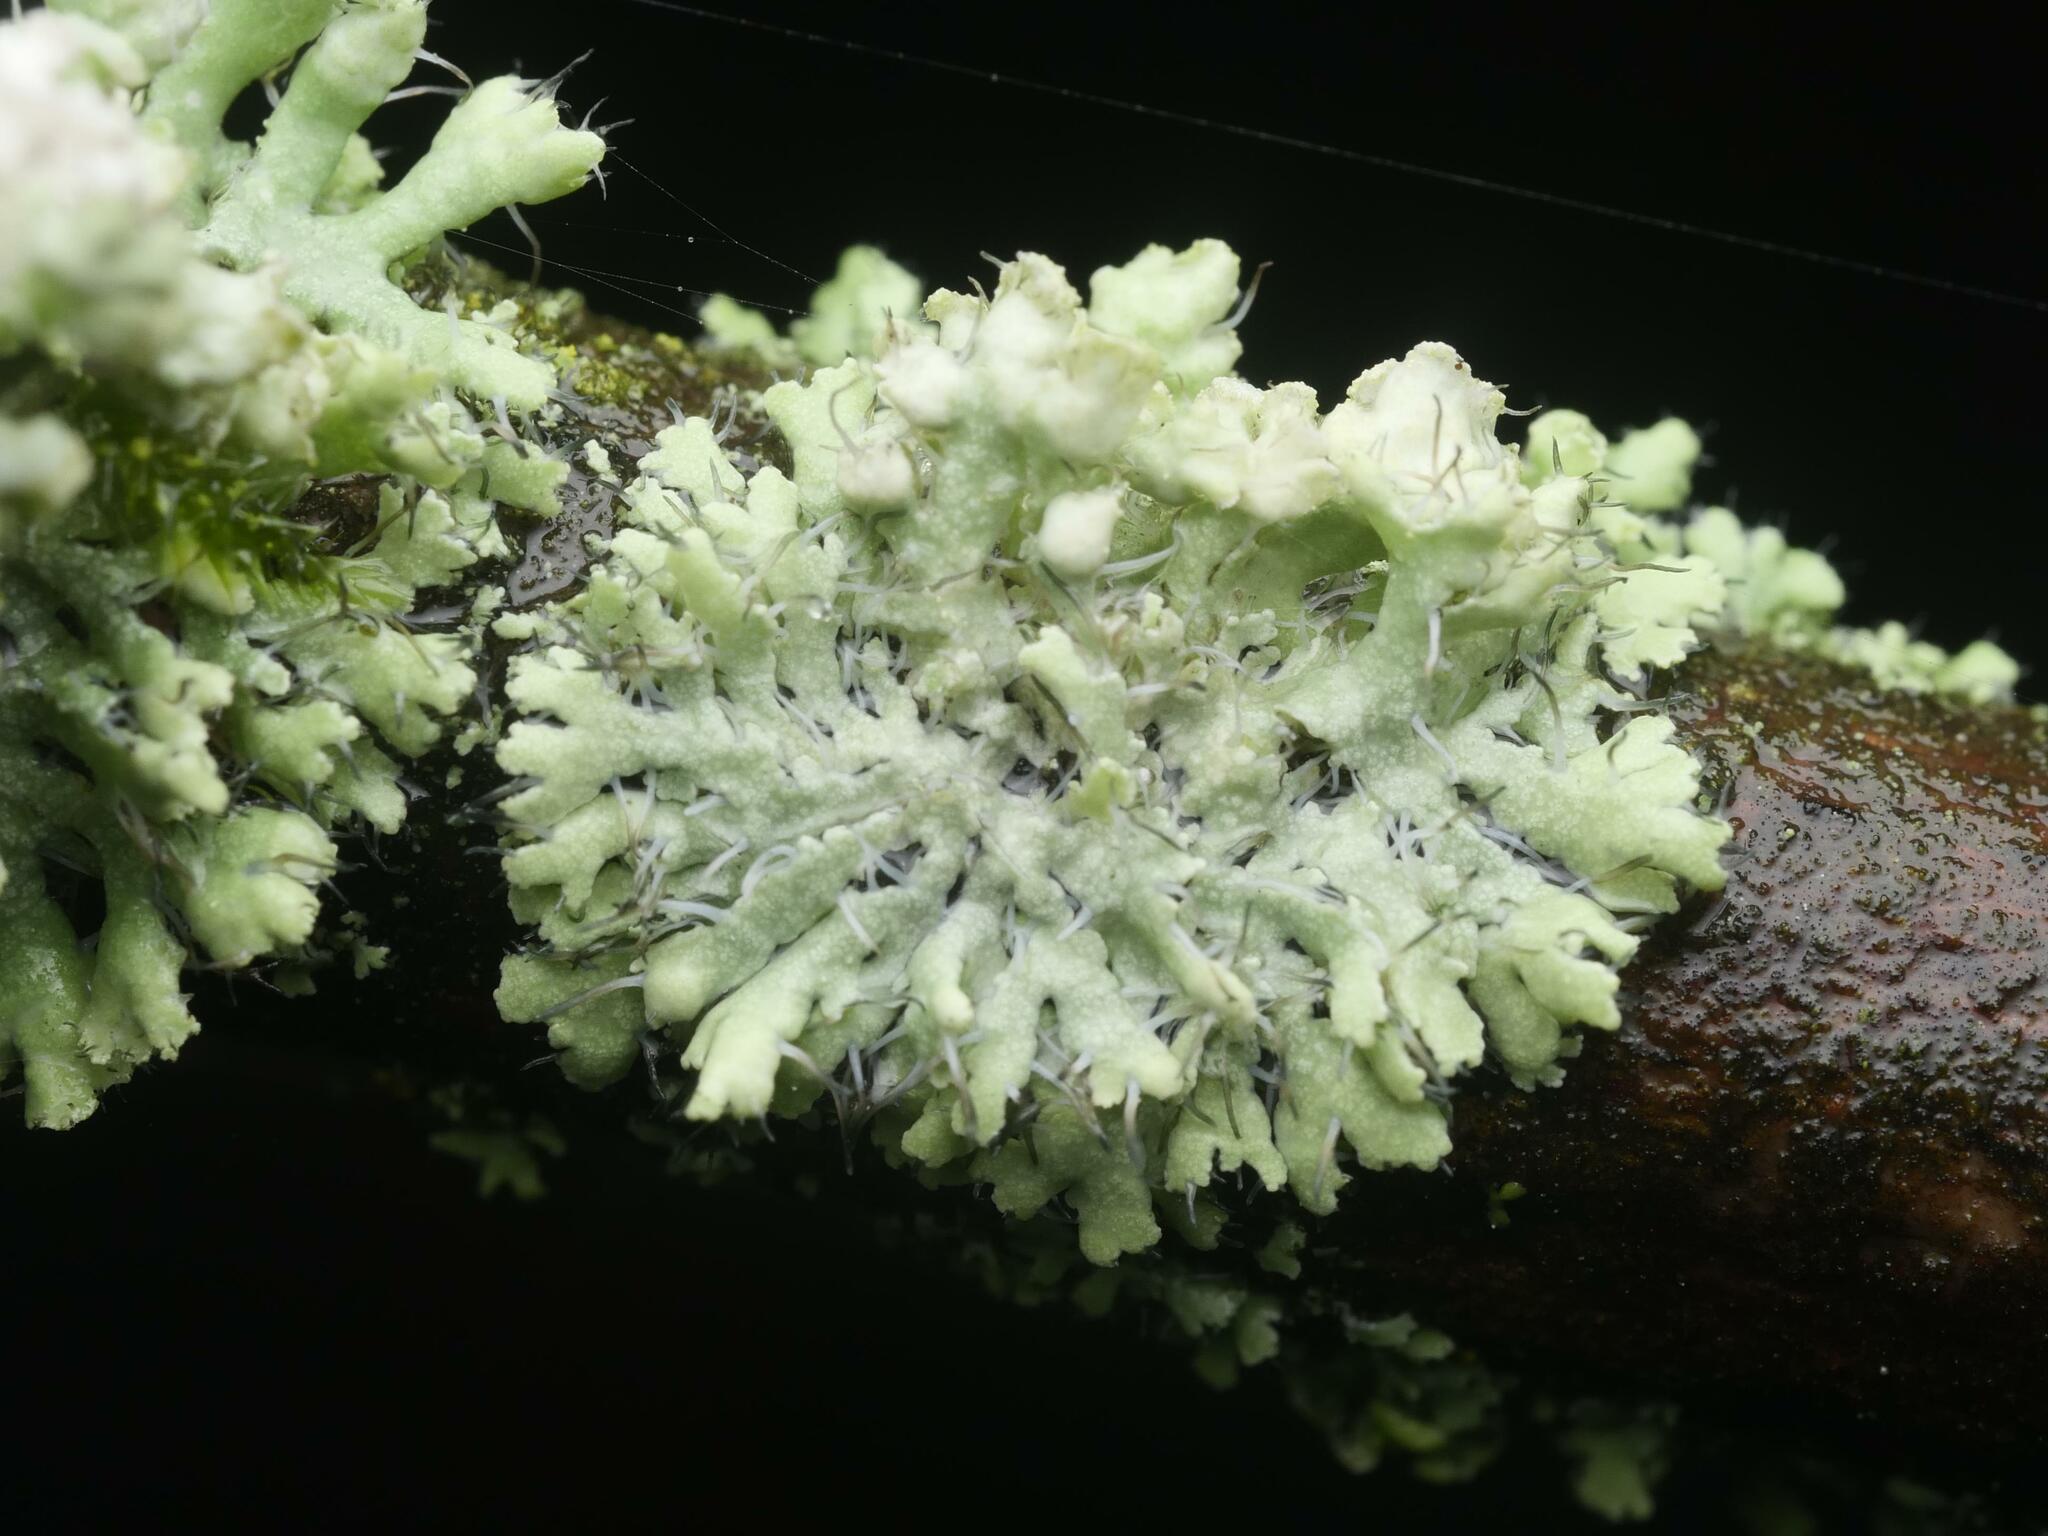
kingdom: Fungi
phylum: Ascomycota
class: Lecanoromycetes
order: Caliciales
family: Physciaceae
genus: Physcia
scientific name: Physcia adscendens
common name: Hooded rosette lichen
